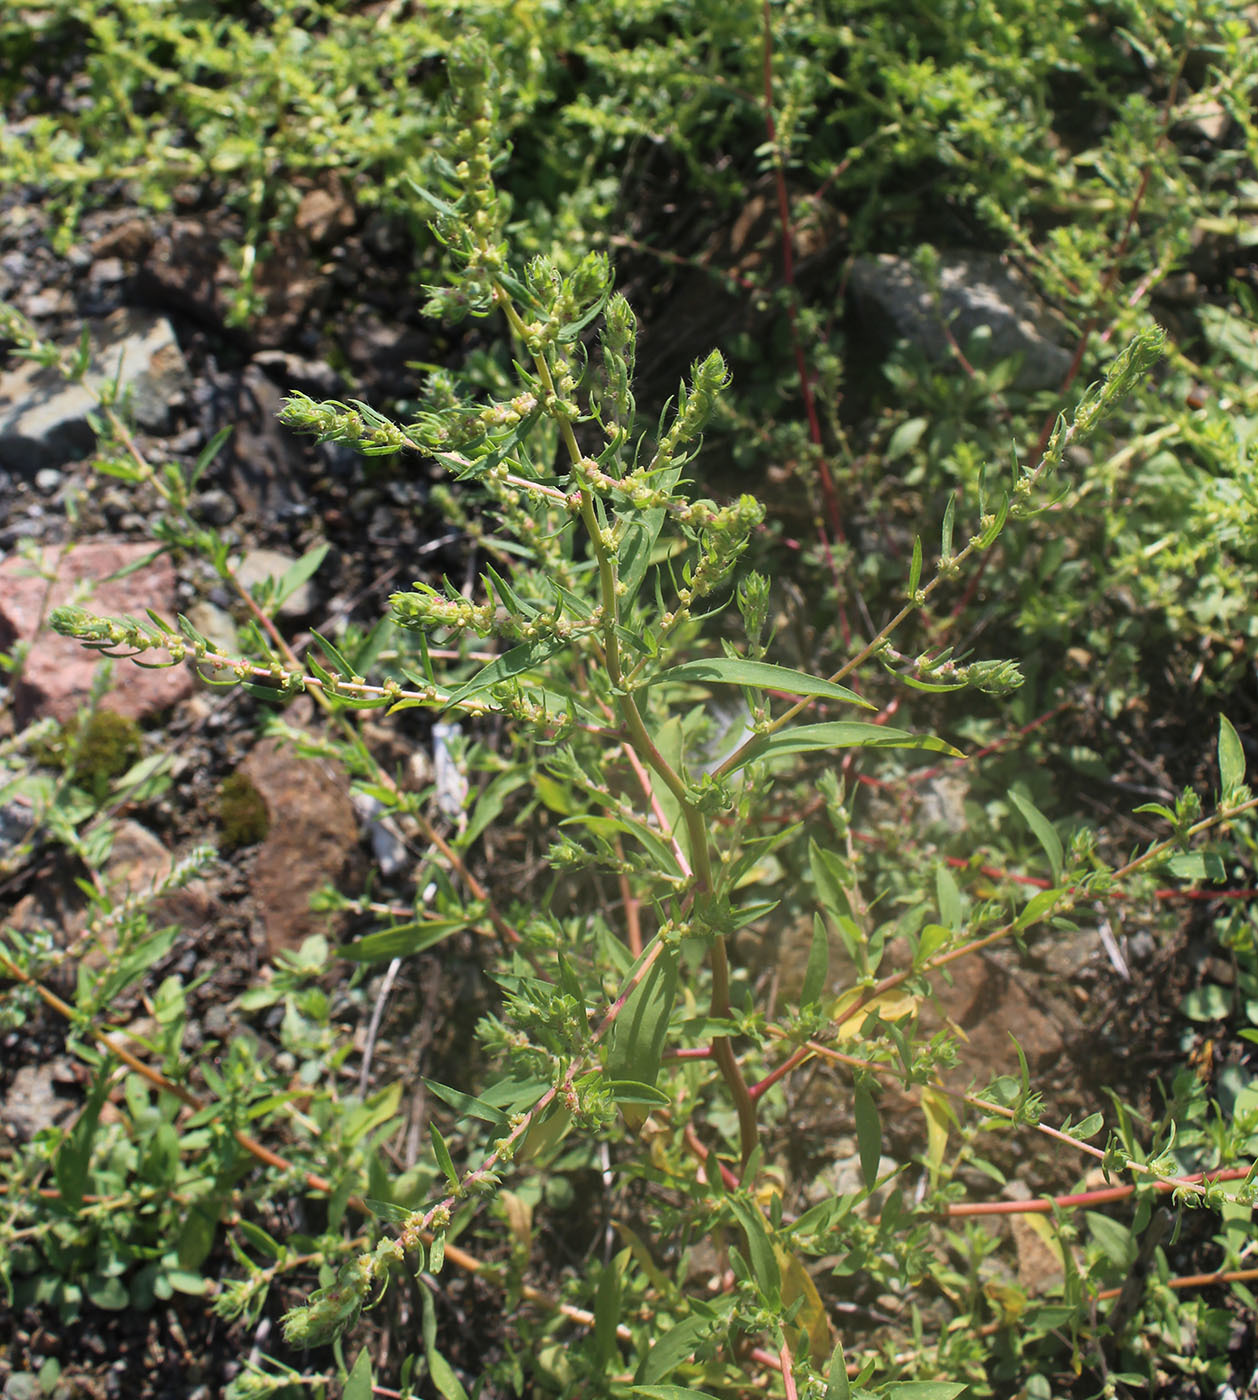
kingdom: Plantae
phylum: Tracheophyta
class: Magnoliopsida
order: Caryophyllales
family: Amaranthaceae
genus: Bassia
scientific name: Bassia scoparia
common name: Belvedere
